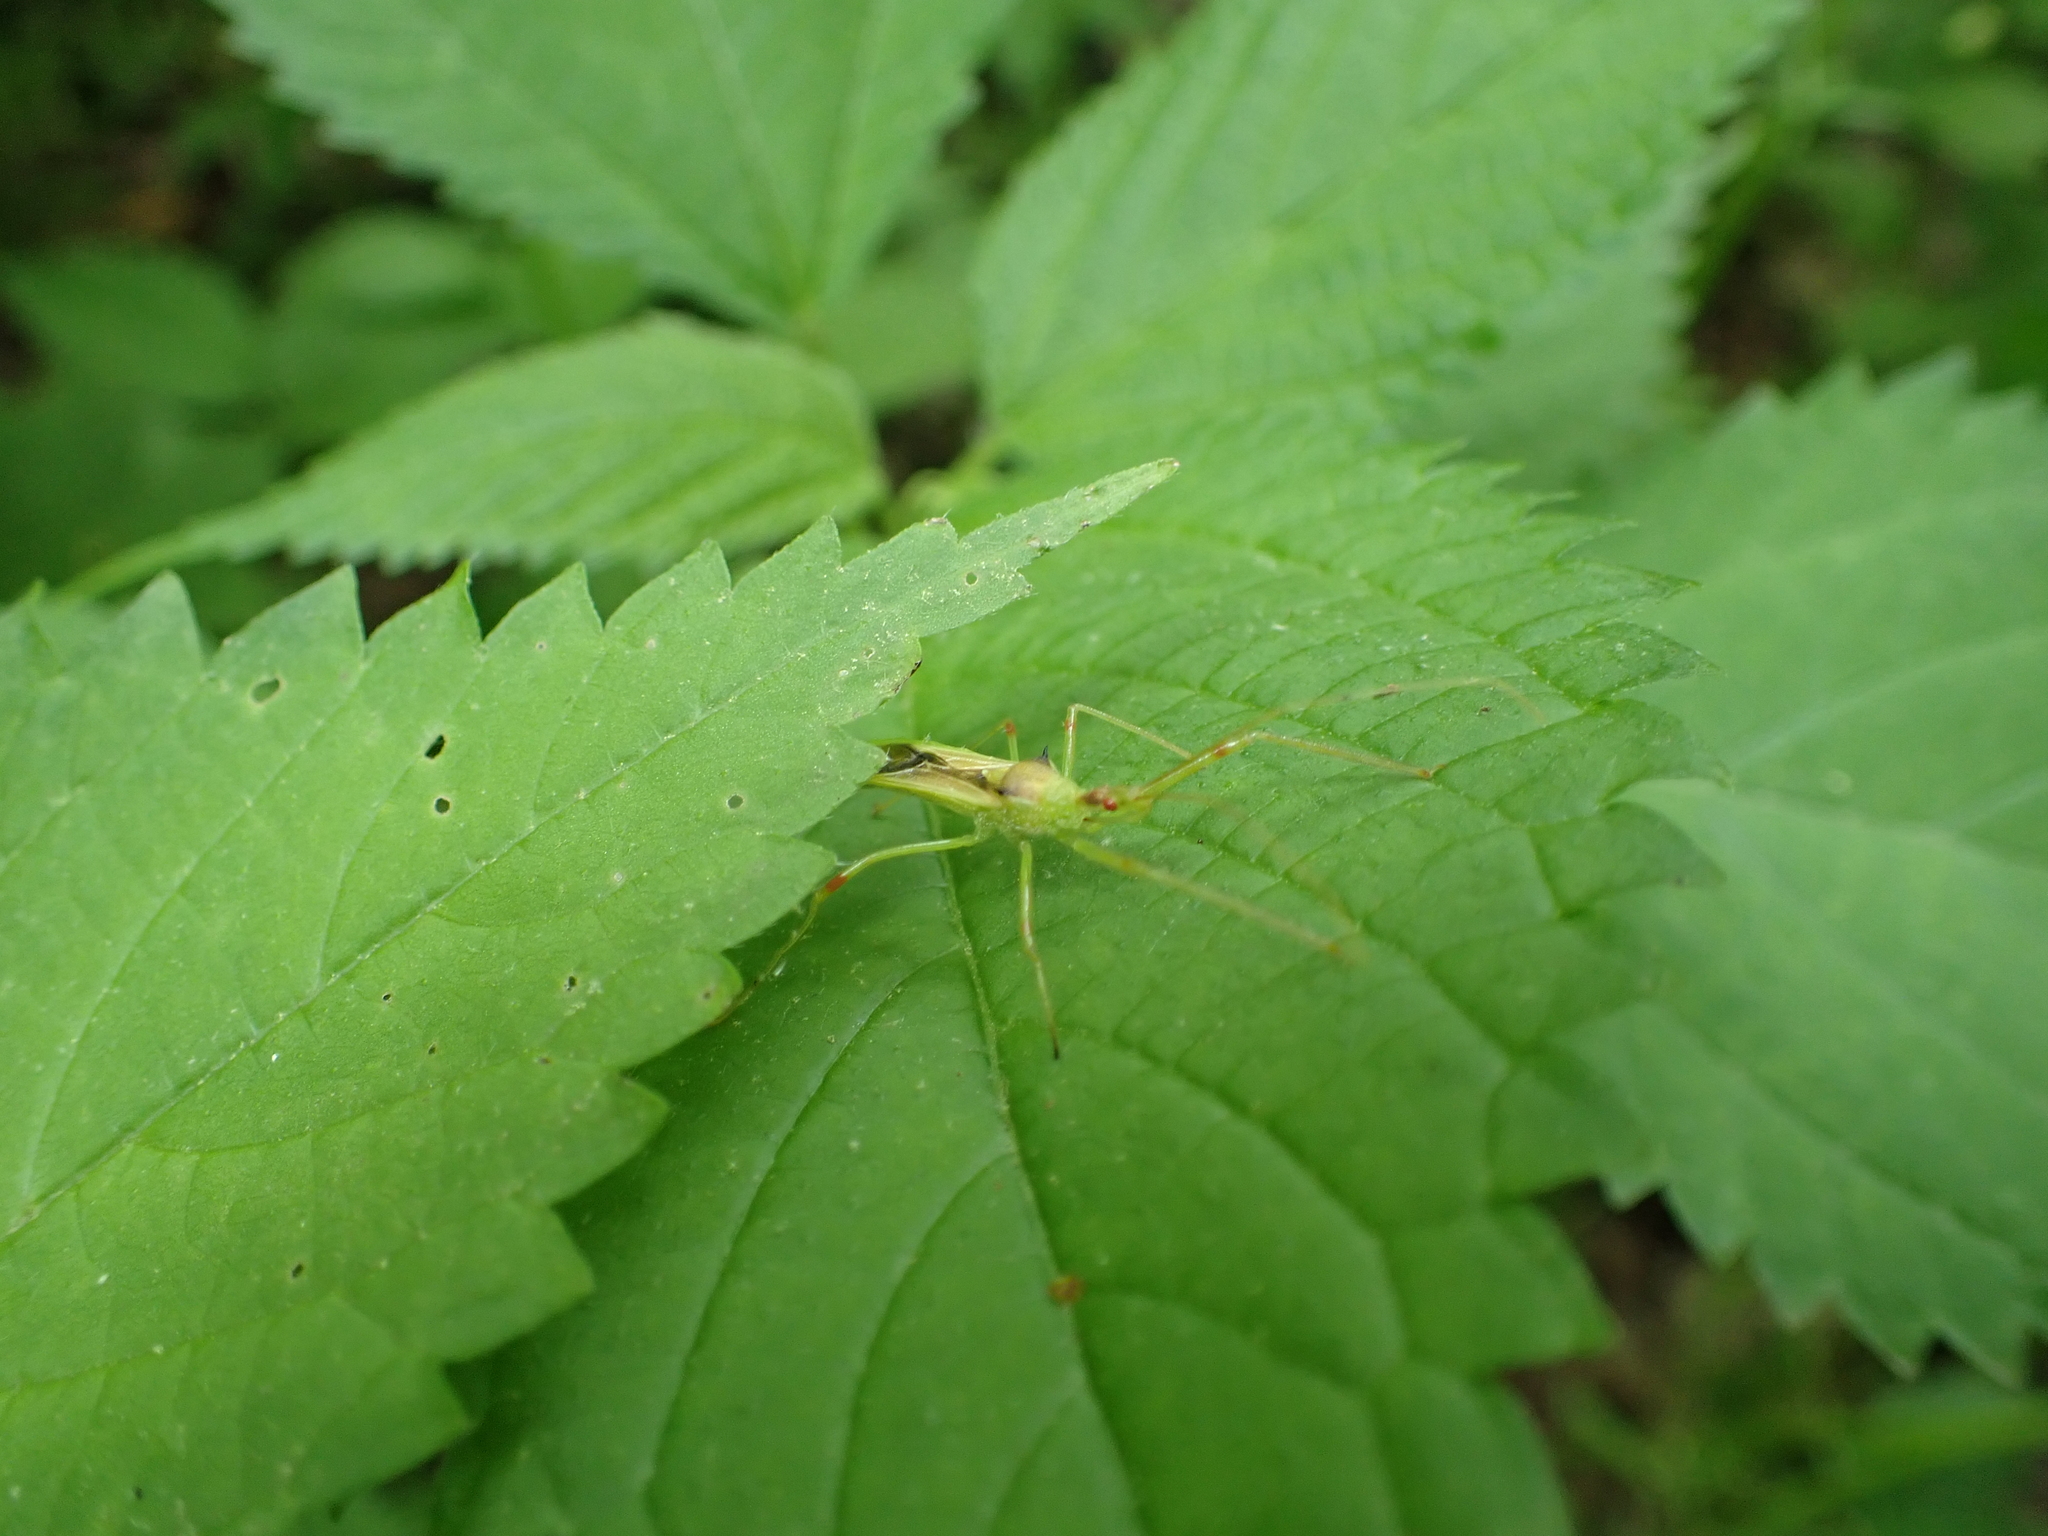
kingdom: Animalia
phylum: Arthropoda
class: Insecta
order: Hemiptera
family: Reduviidae
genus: Zelus
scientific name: Zelus luridus
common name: Pale green assassin bug
